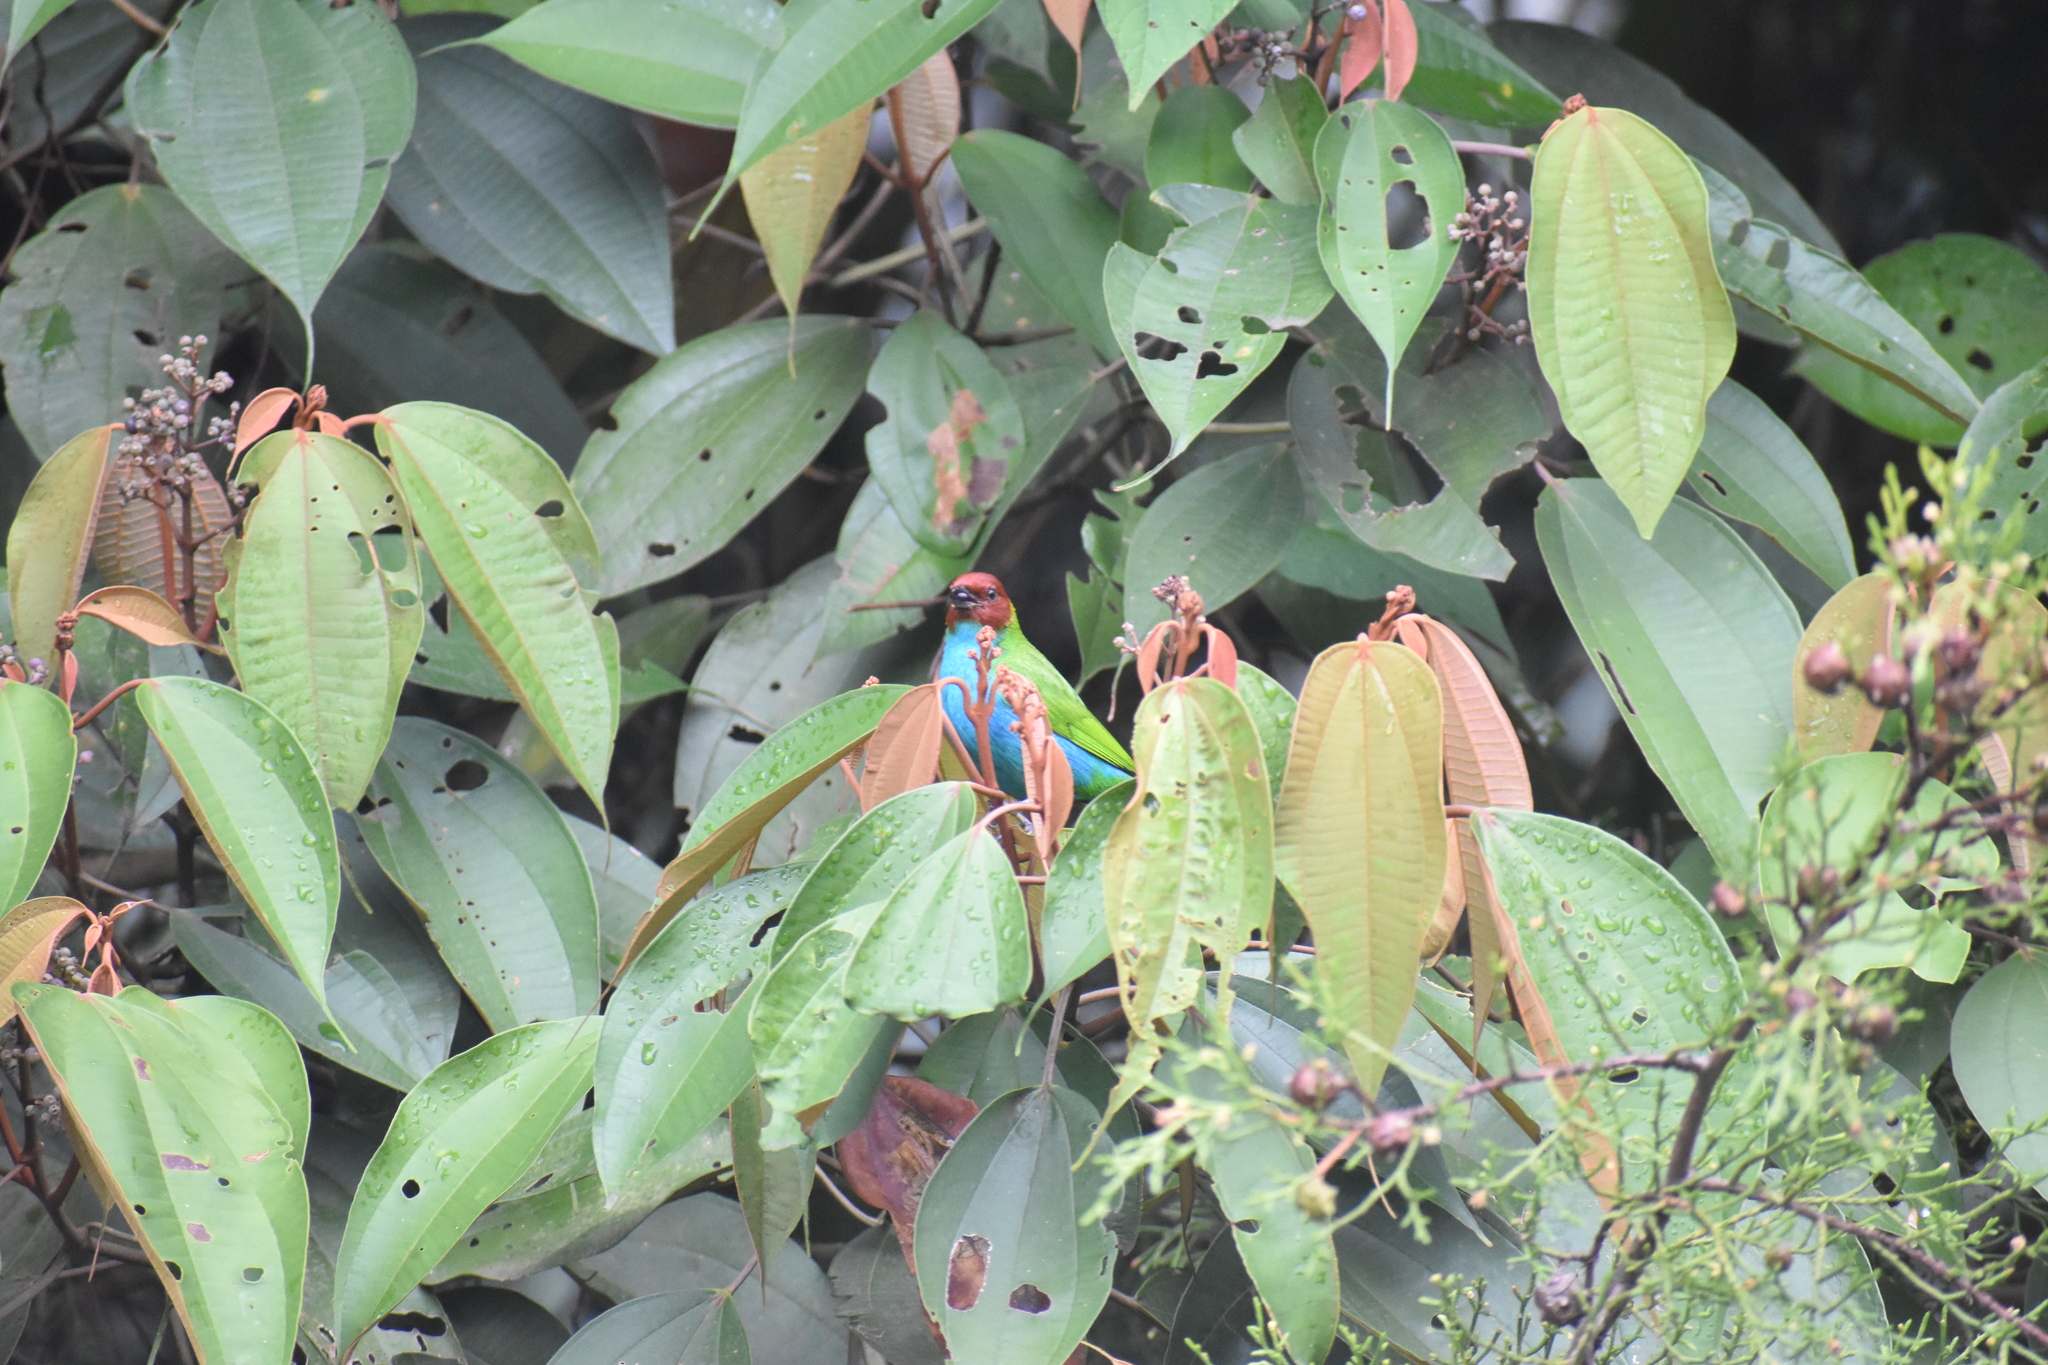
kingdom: Animalia
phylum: Chordata
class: Aves
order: Passeriformes
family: Thraupidae
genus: Tangara
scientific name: Tangara gyrola
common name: Bay-headed tanager
